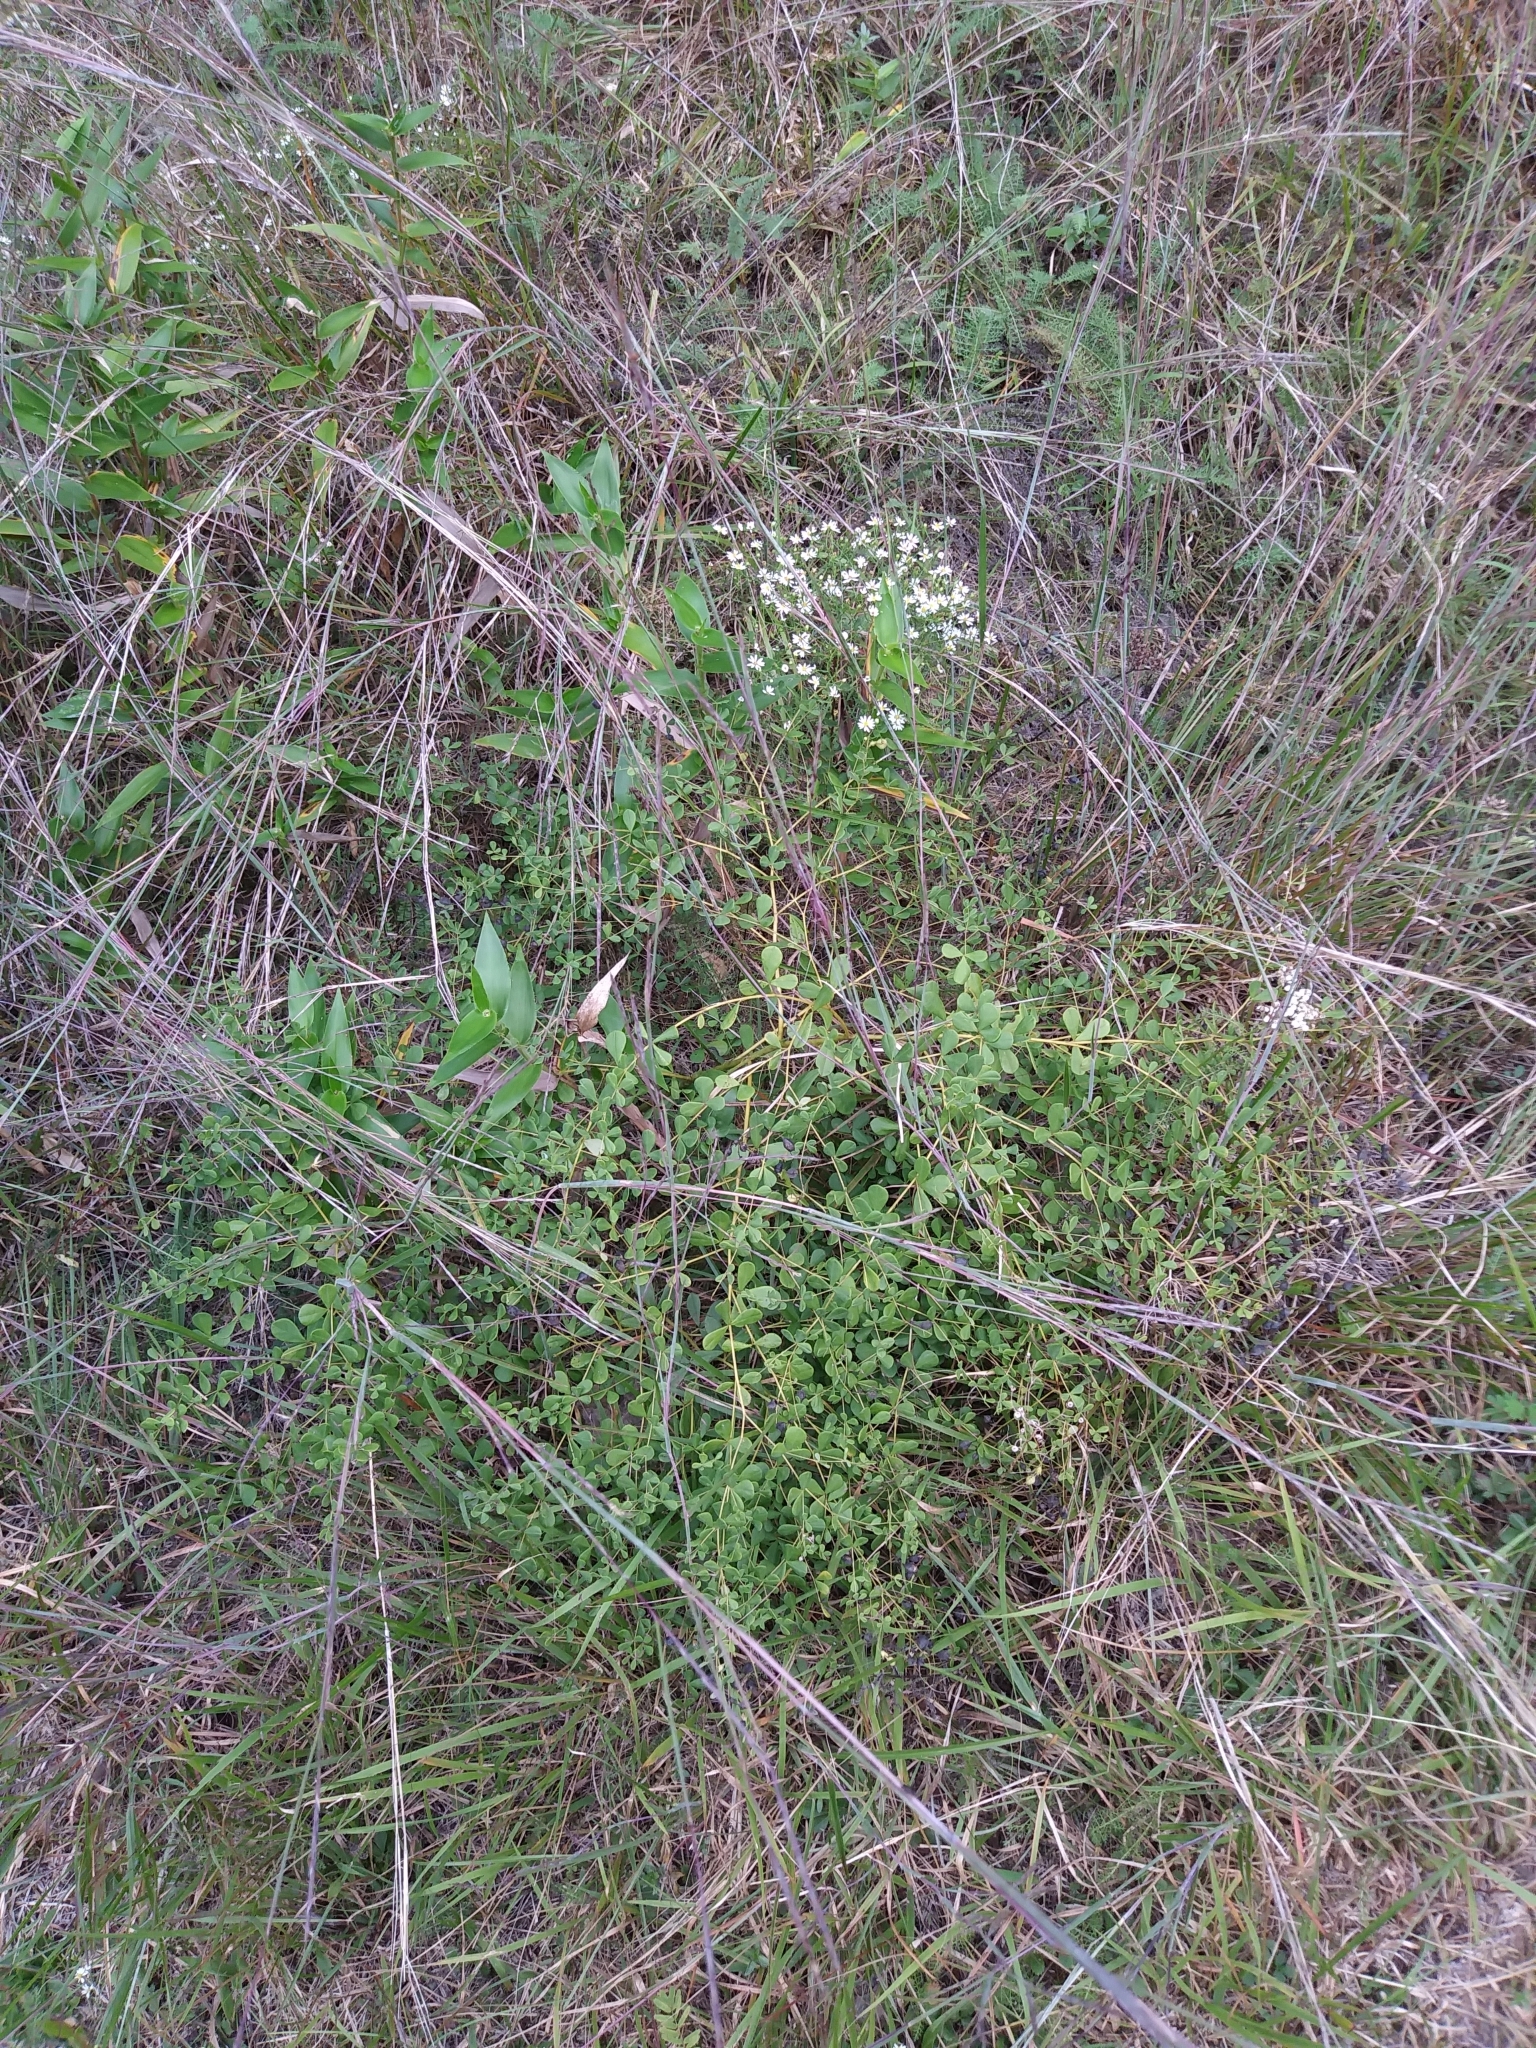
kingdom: Plantae
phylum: Tracheophyta
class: Magnoliopsida
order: Fabales
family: Fabaceae
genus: Baptisia
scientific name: Baptisia tinctoria
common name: Wild indigo
